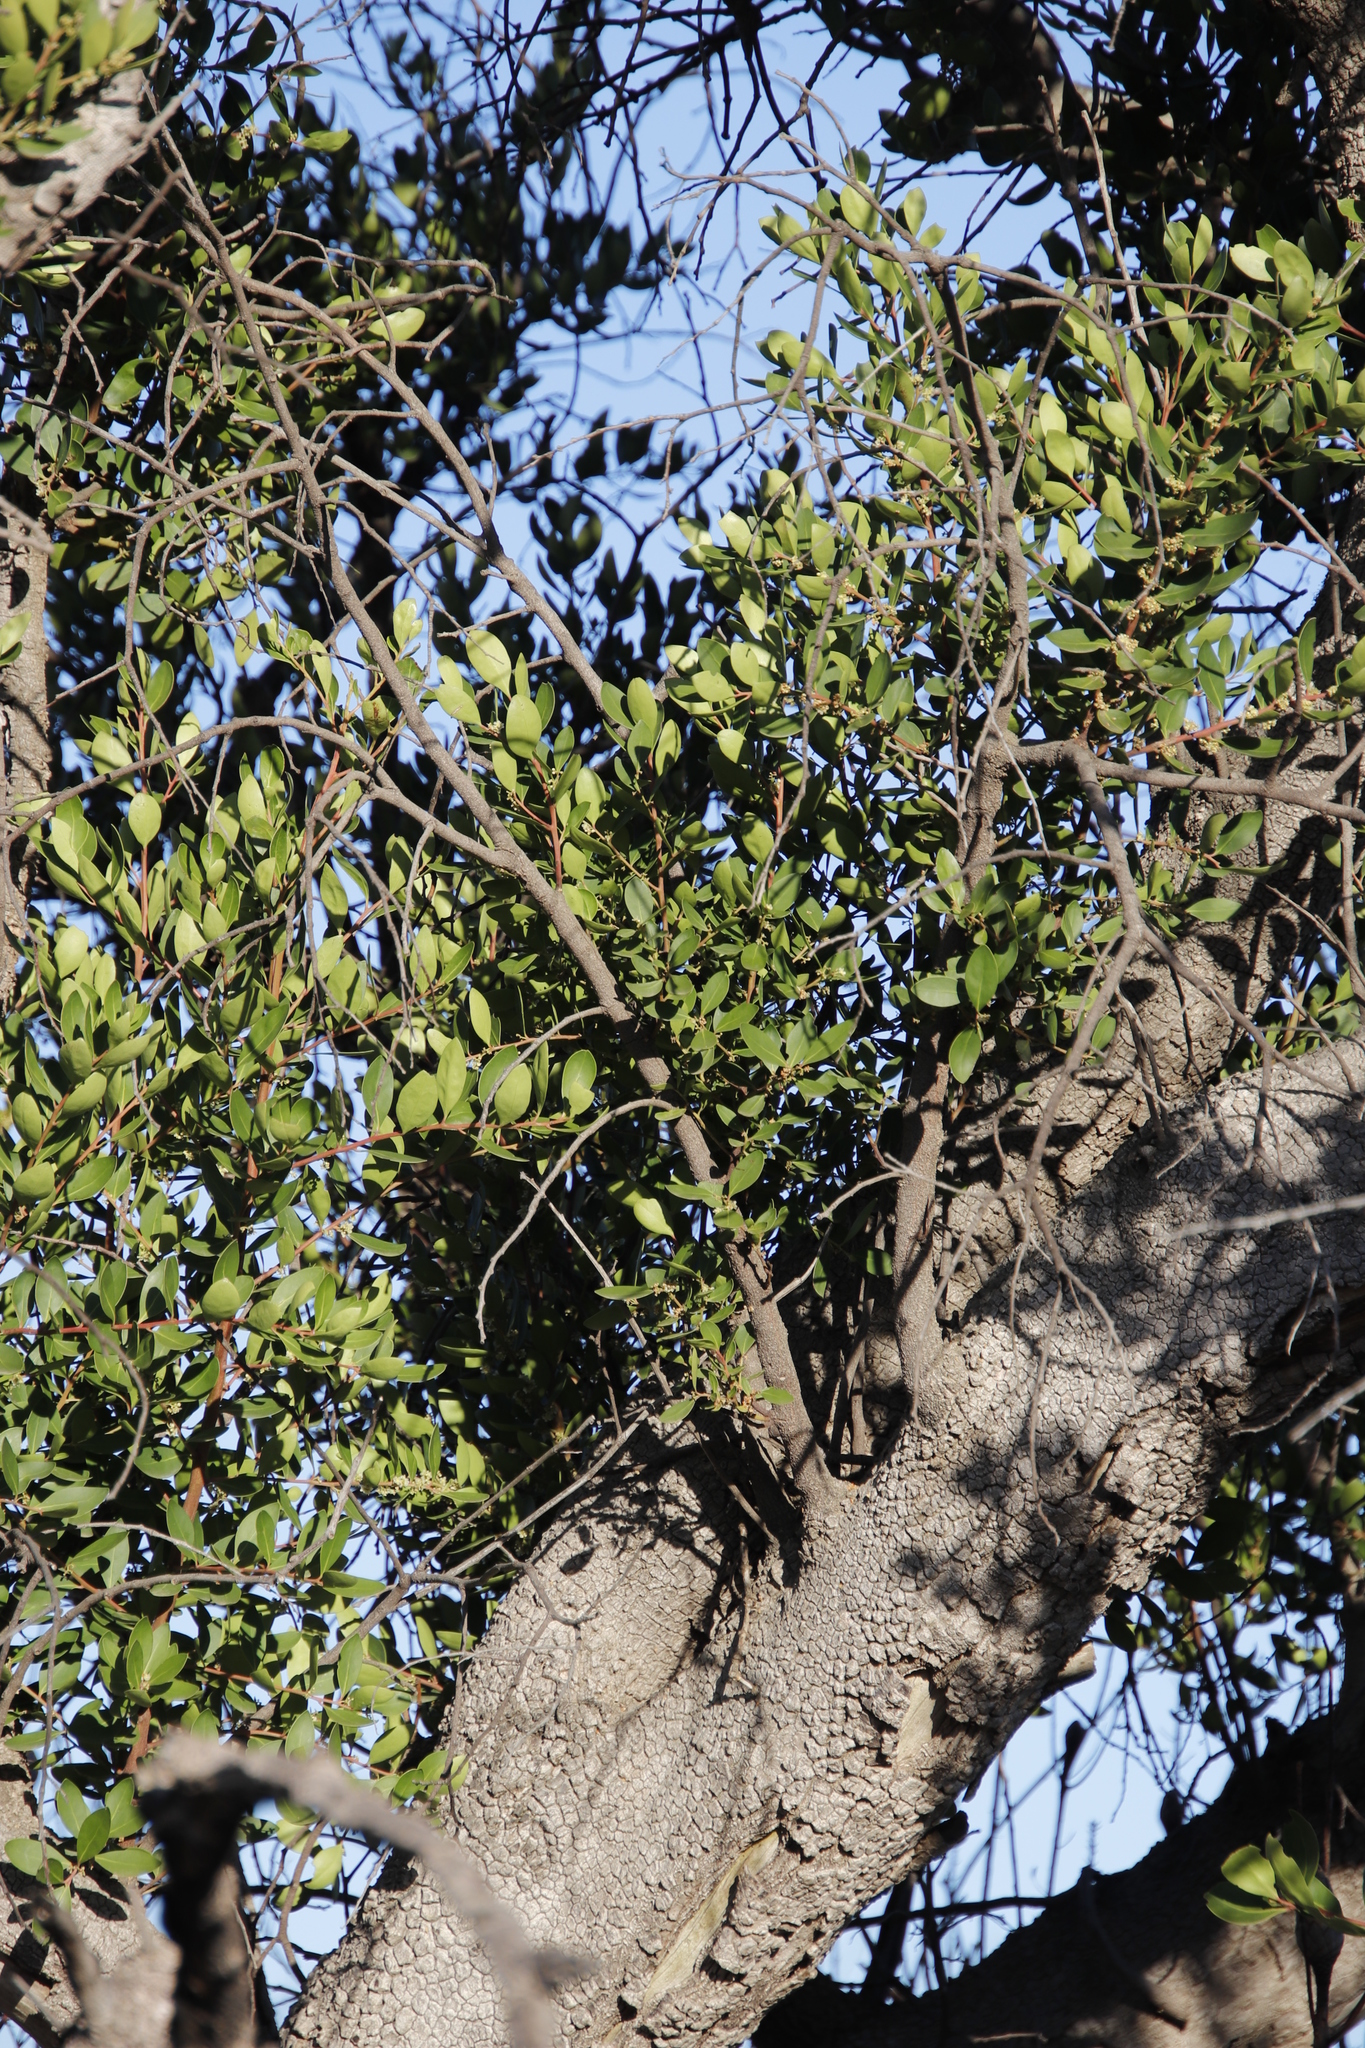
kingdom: Plantae
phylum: Tracheophyta
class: Magnoliopsida
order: Celastrales
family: Celastraceae
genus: Gymnosporia
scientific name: Gymnosporia laurina
